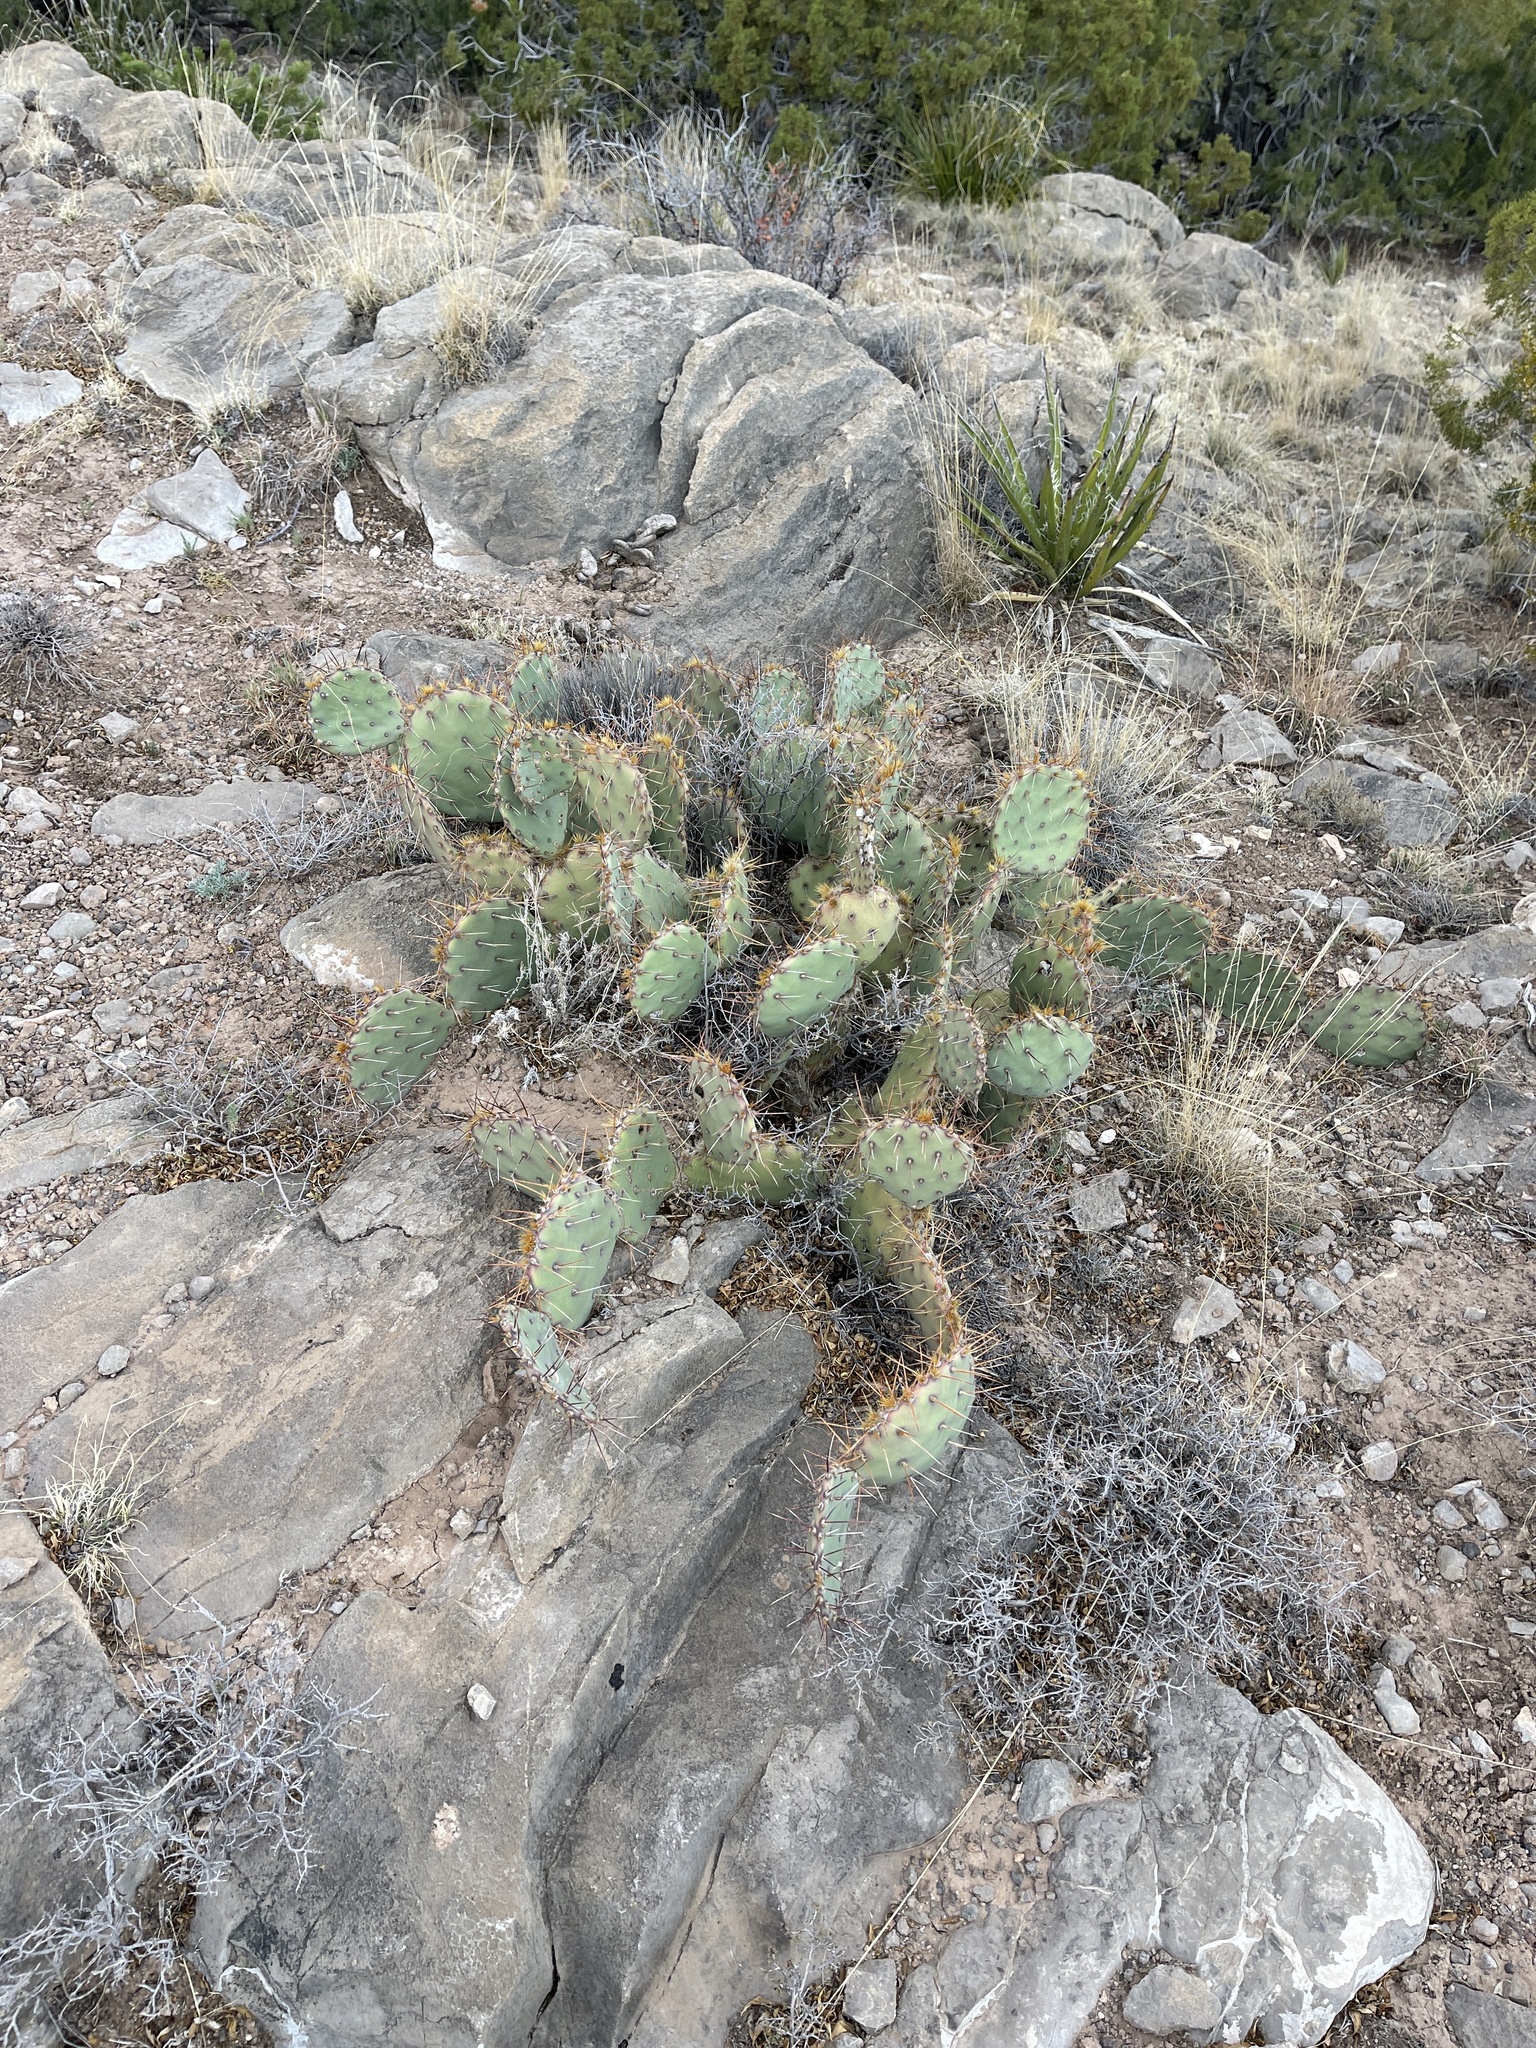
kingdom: Plantae
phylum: Tracheophyta
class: Magnoliopsida
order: Caryophyllales
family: Cactaceae
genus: Opuntia
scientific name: Opuntia phaeacantha
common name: New mexico prickly-pear
